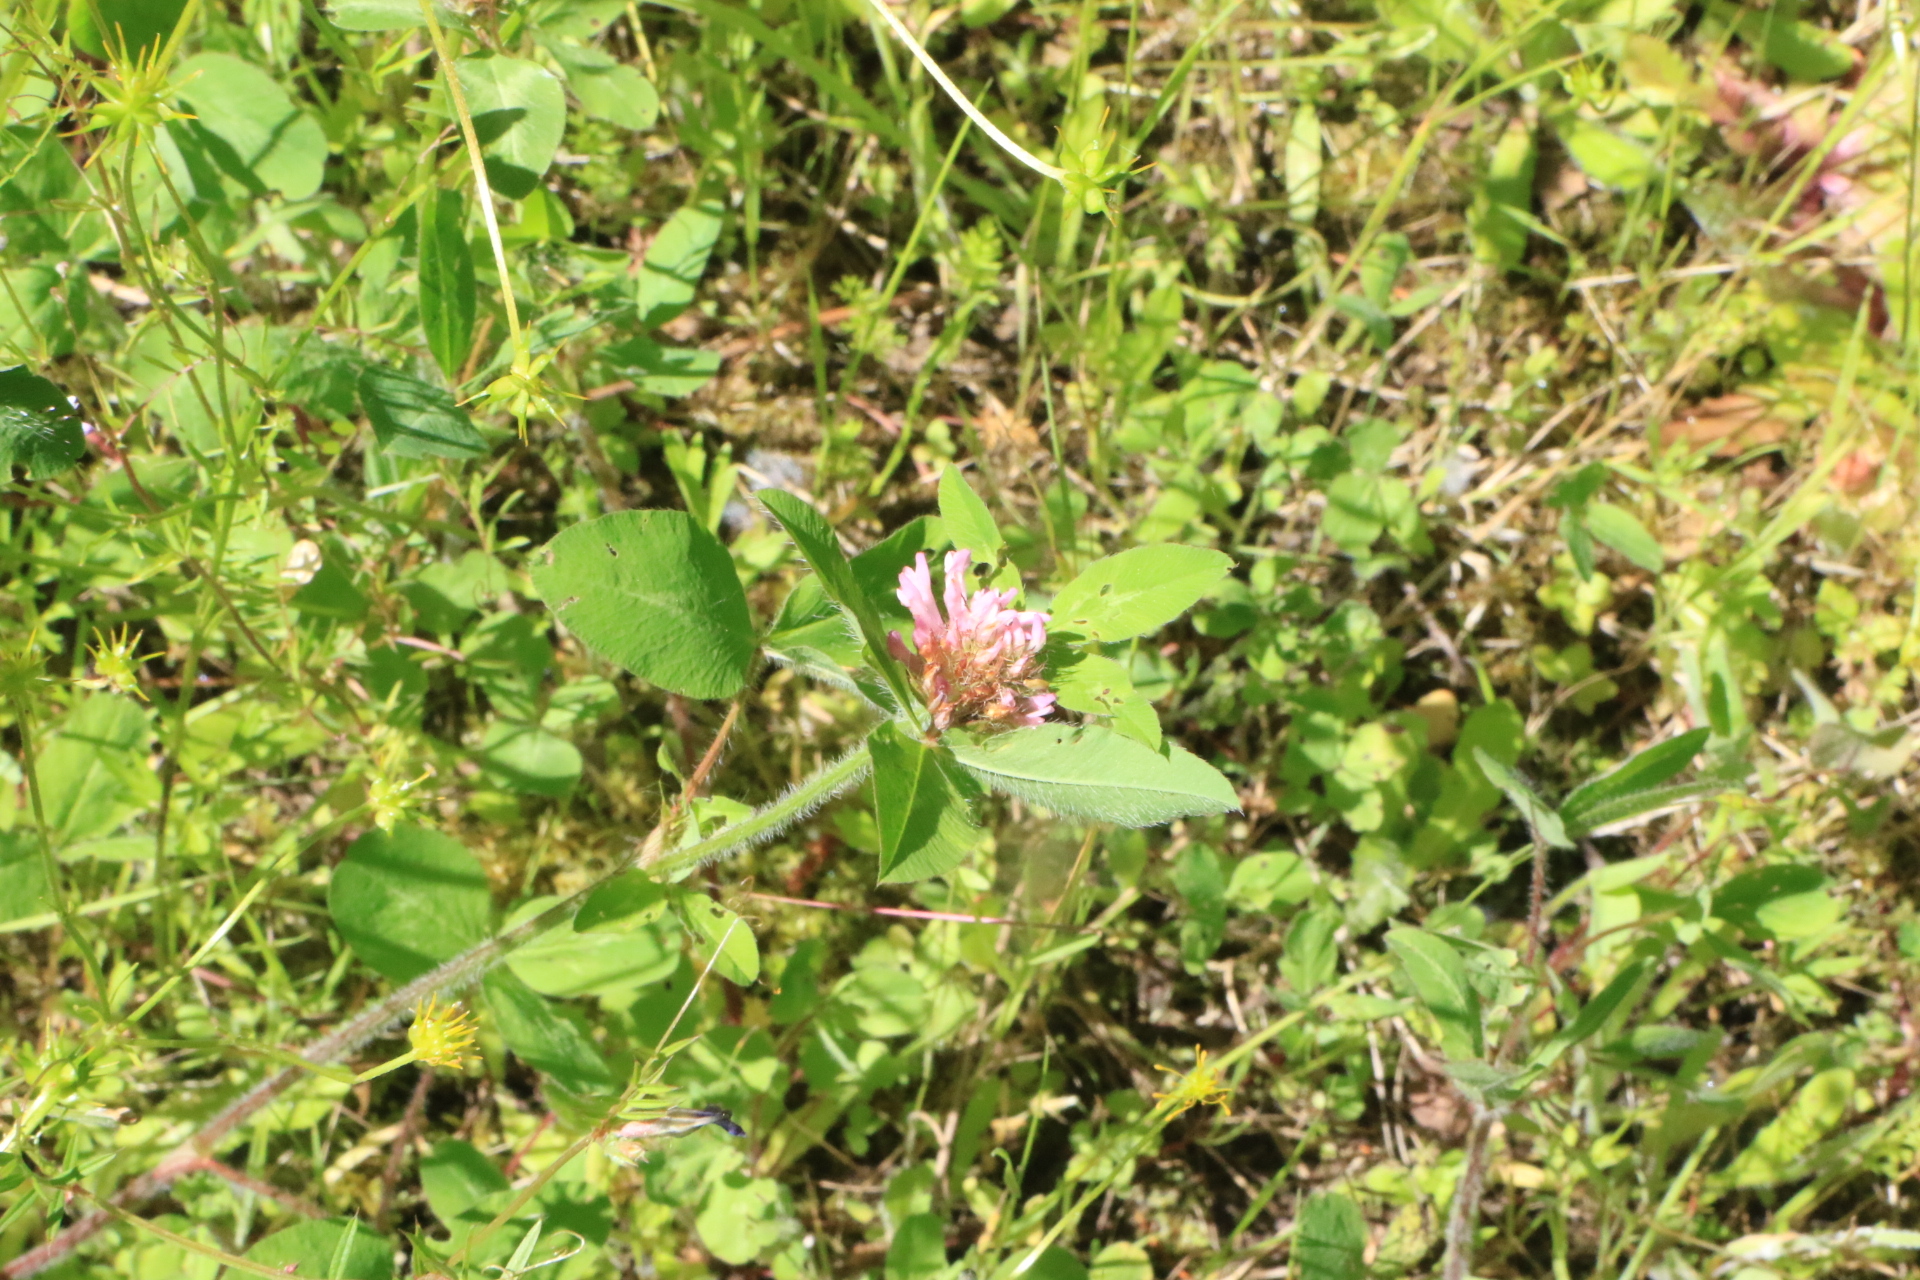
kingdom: Plantae
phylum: Tracheophyta
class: Magnoliopsida
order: Fabales
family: Fabaceae
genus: Trifolium
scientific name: Trifolium pratense
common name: Red clover
